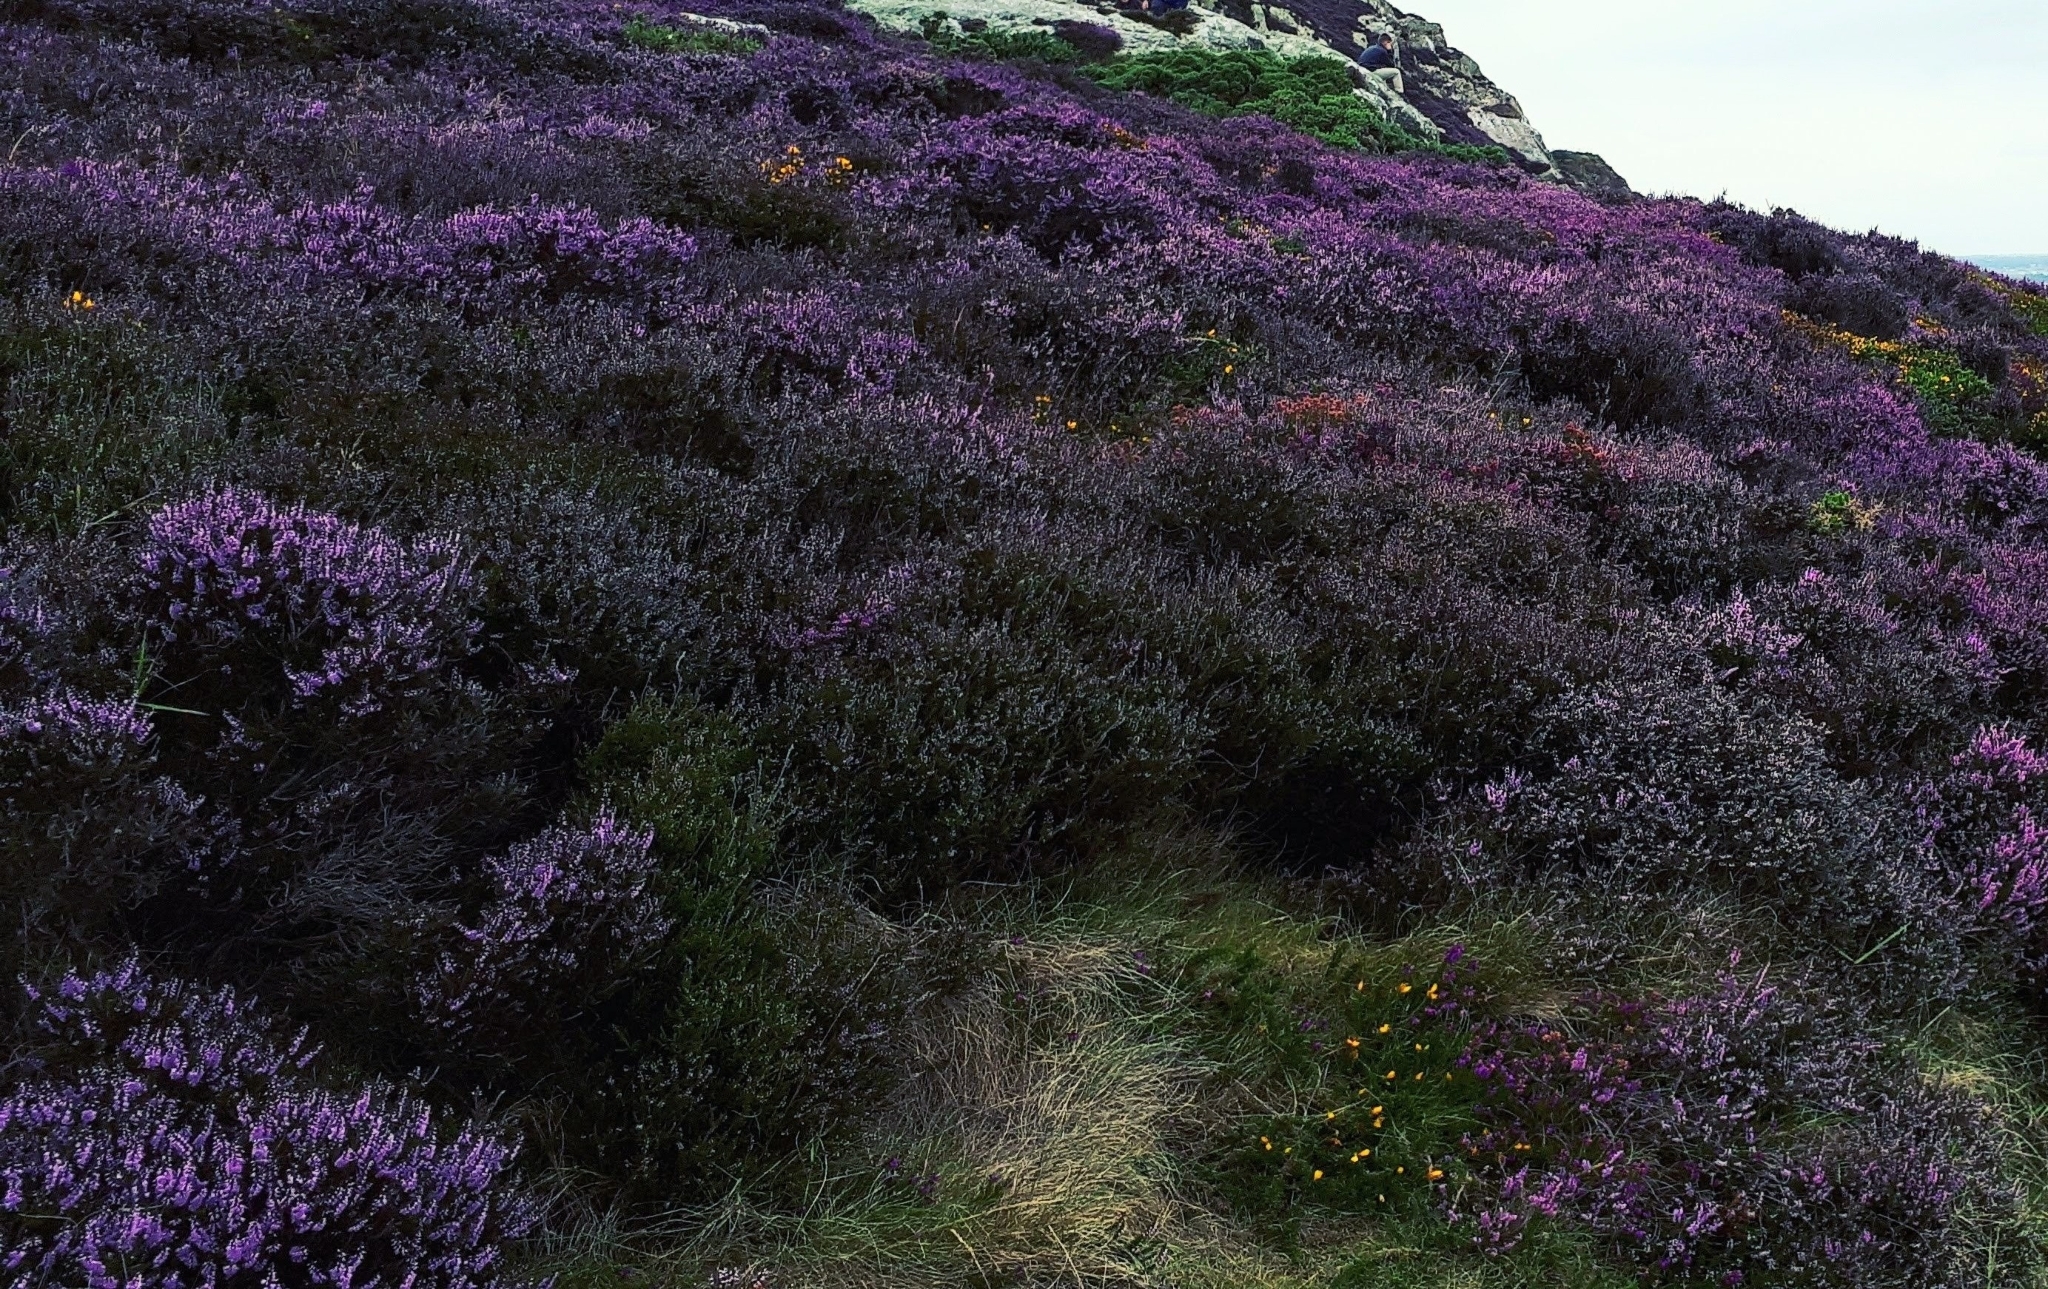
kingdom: Plantae
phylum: Tracheophyta
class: Magnoliopsida
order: Ericales
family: Ericaceae
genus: Calluna
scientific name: Calluna vulgaris
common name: Heather
